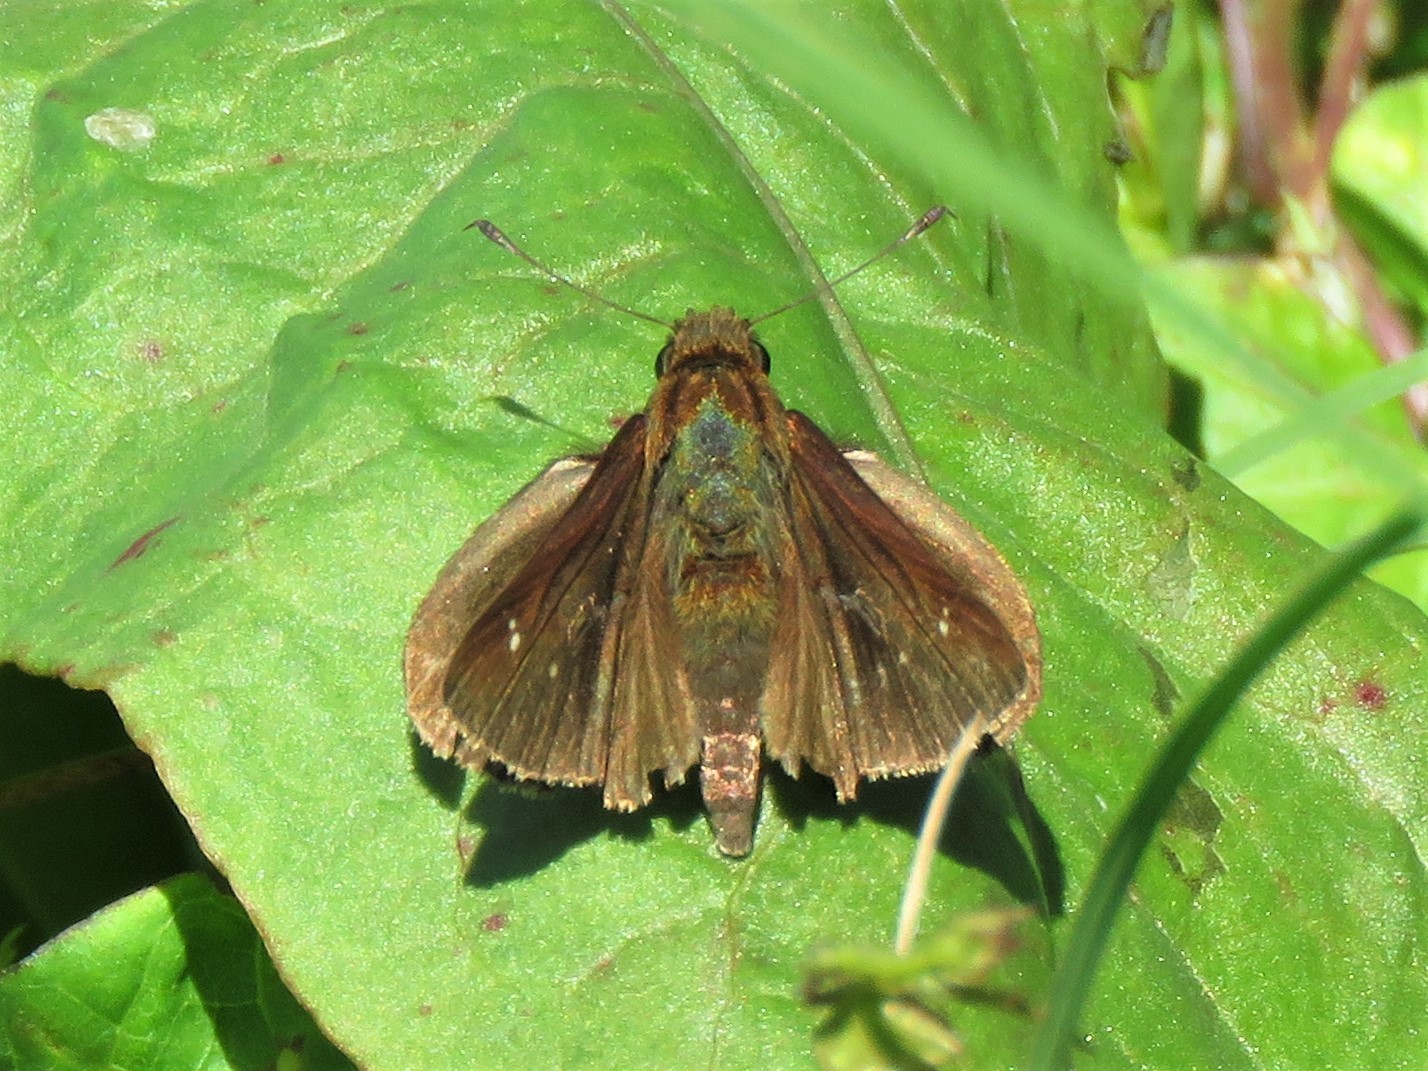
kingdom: Animalia
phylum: Arthropoda
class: Insecta
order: Lepidoptera
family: Hesperiidae
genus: Lerema
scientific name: Lerema accius
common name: Clouded skipper
